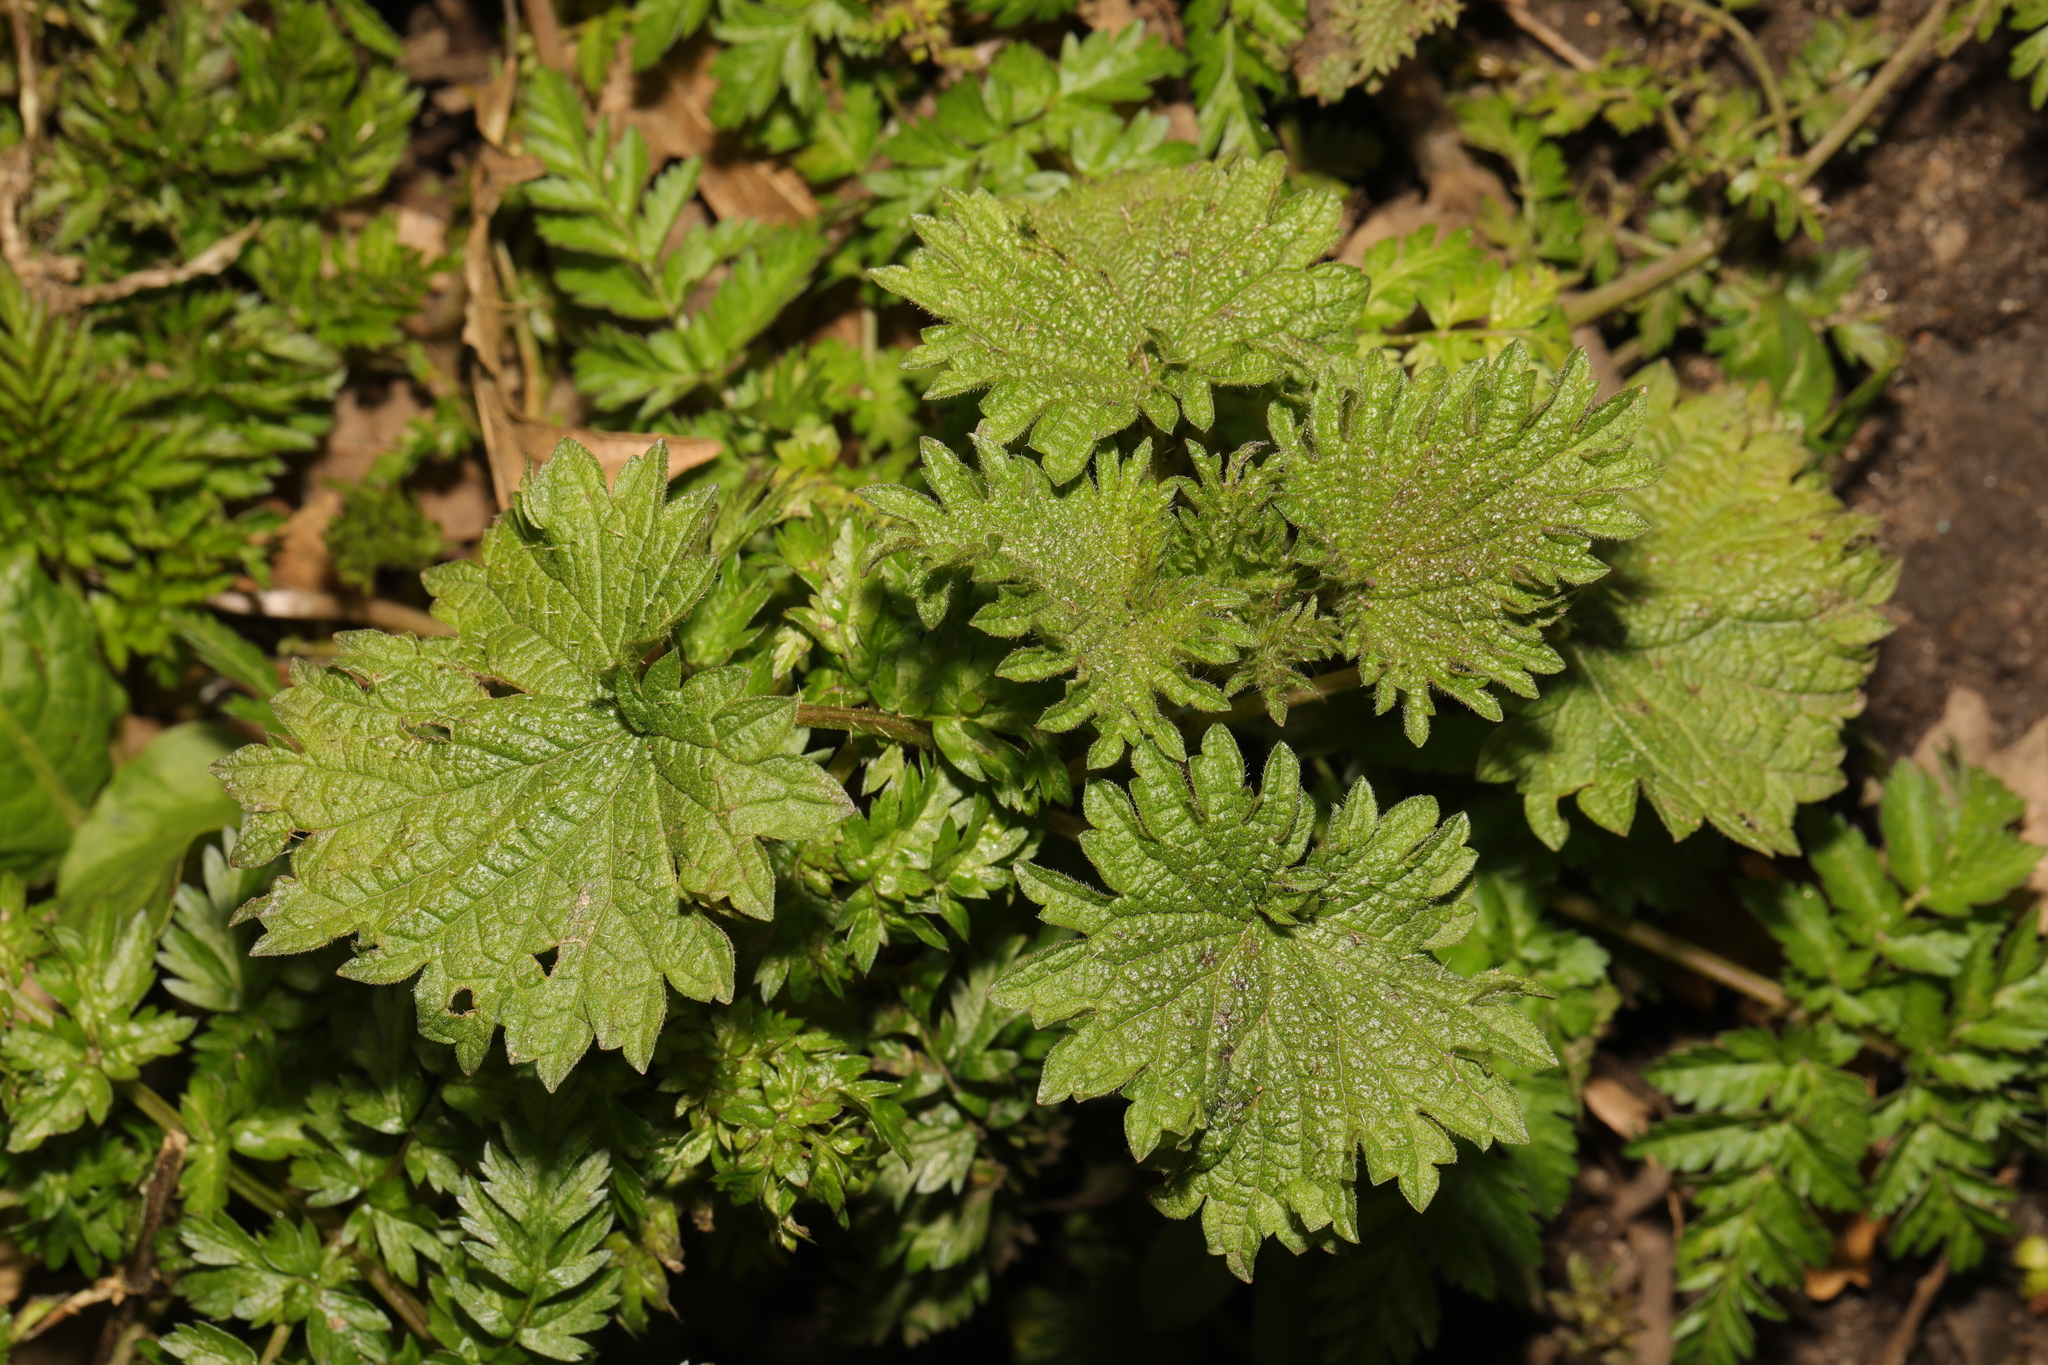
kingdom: Plantae
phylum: Tracheophyta
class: Magnoliopsida
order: Rosales
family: Urticaceae
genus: Urtica
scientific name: Urtica dioica
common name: Common nettle
